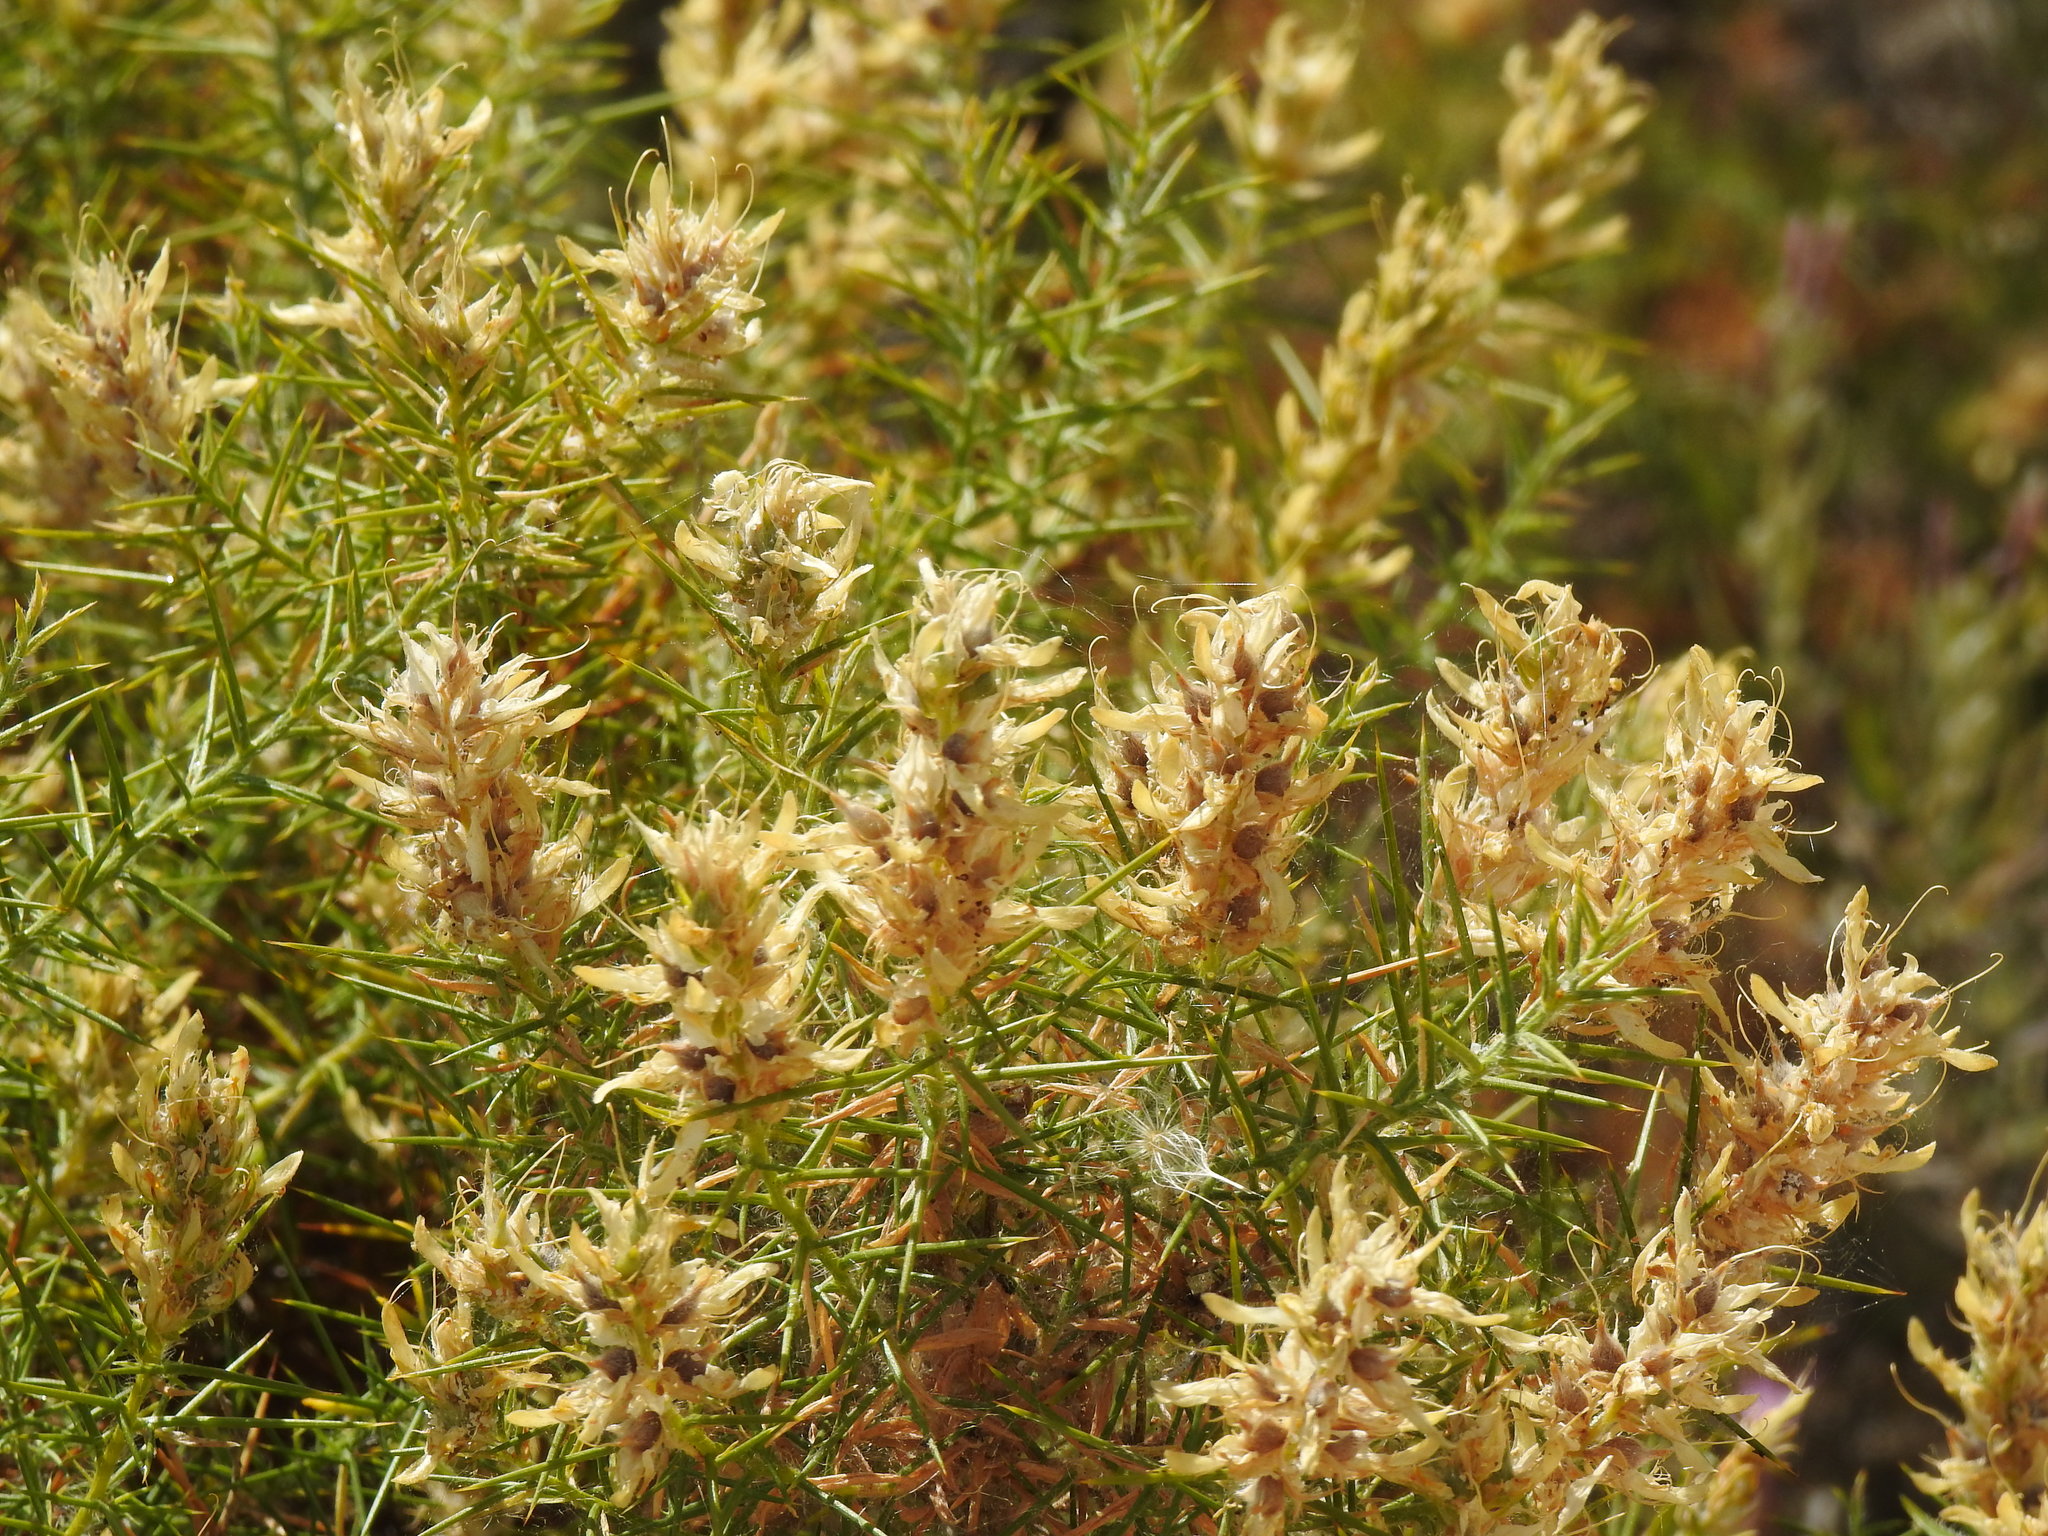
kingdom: Plantae
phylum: Tracheophyta
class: Magnoliopsida
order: Fabales
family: Fabaceae
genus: Genista
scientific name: Genista hirsuta
